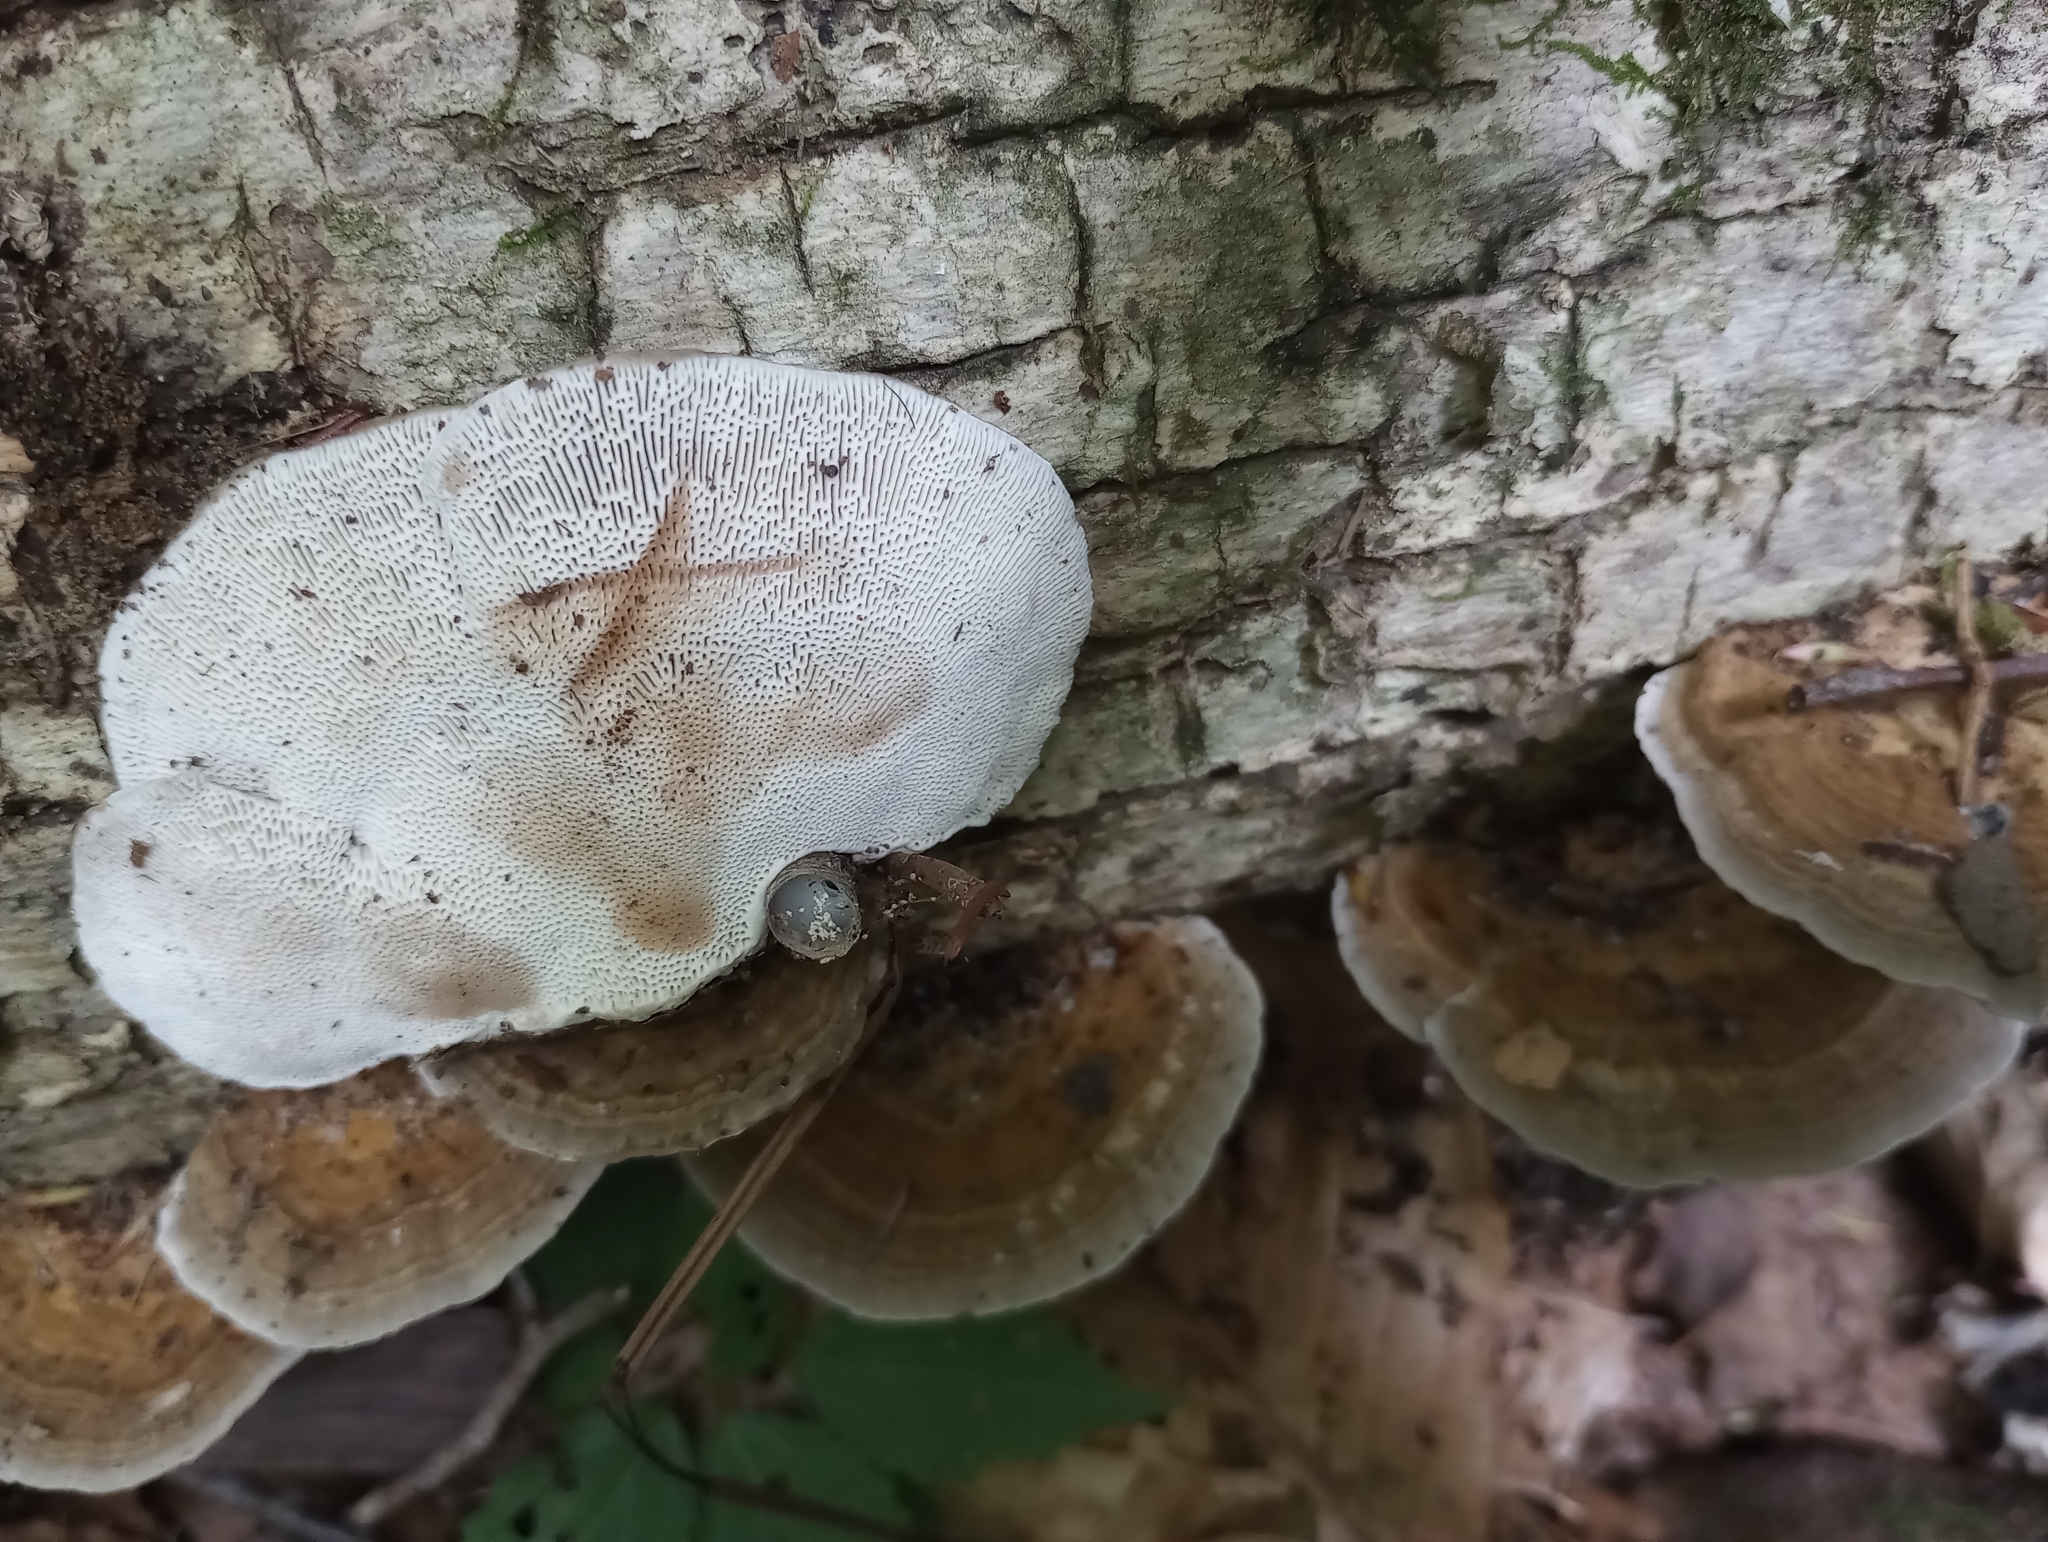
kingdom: Fungi
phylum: Basidiomycota
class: Agaricomycetes
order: Polyporales
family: Polyporaceae
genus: Daedaleopsis
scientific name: Daedaleopsis confragosa
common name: Blushing bracket
